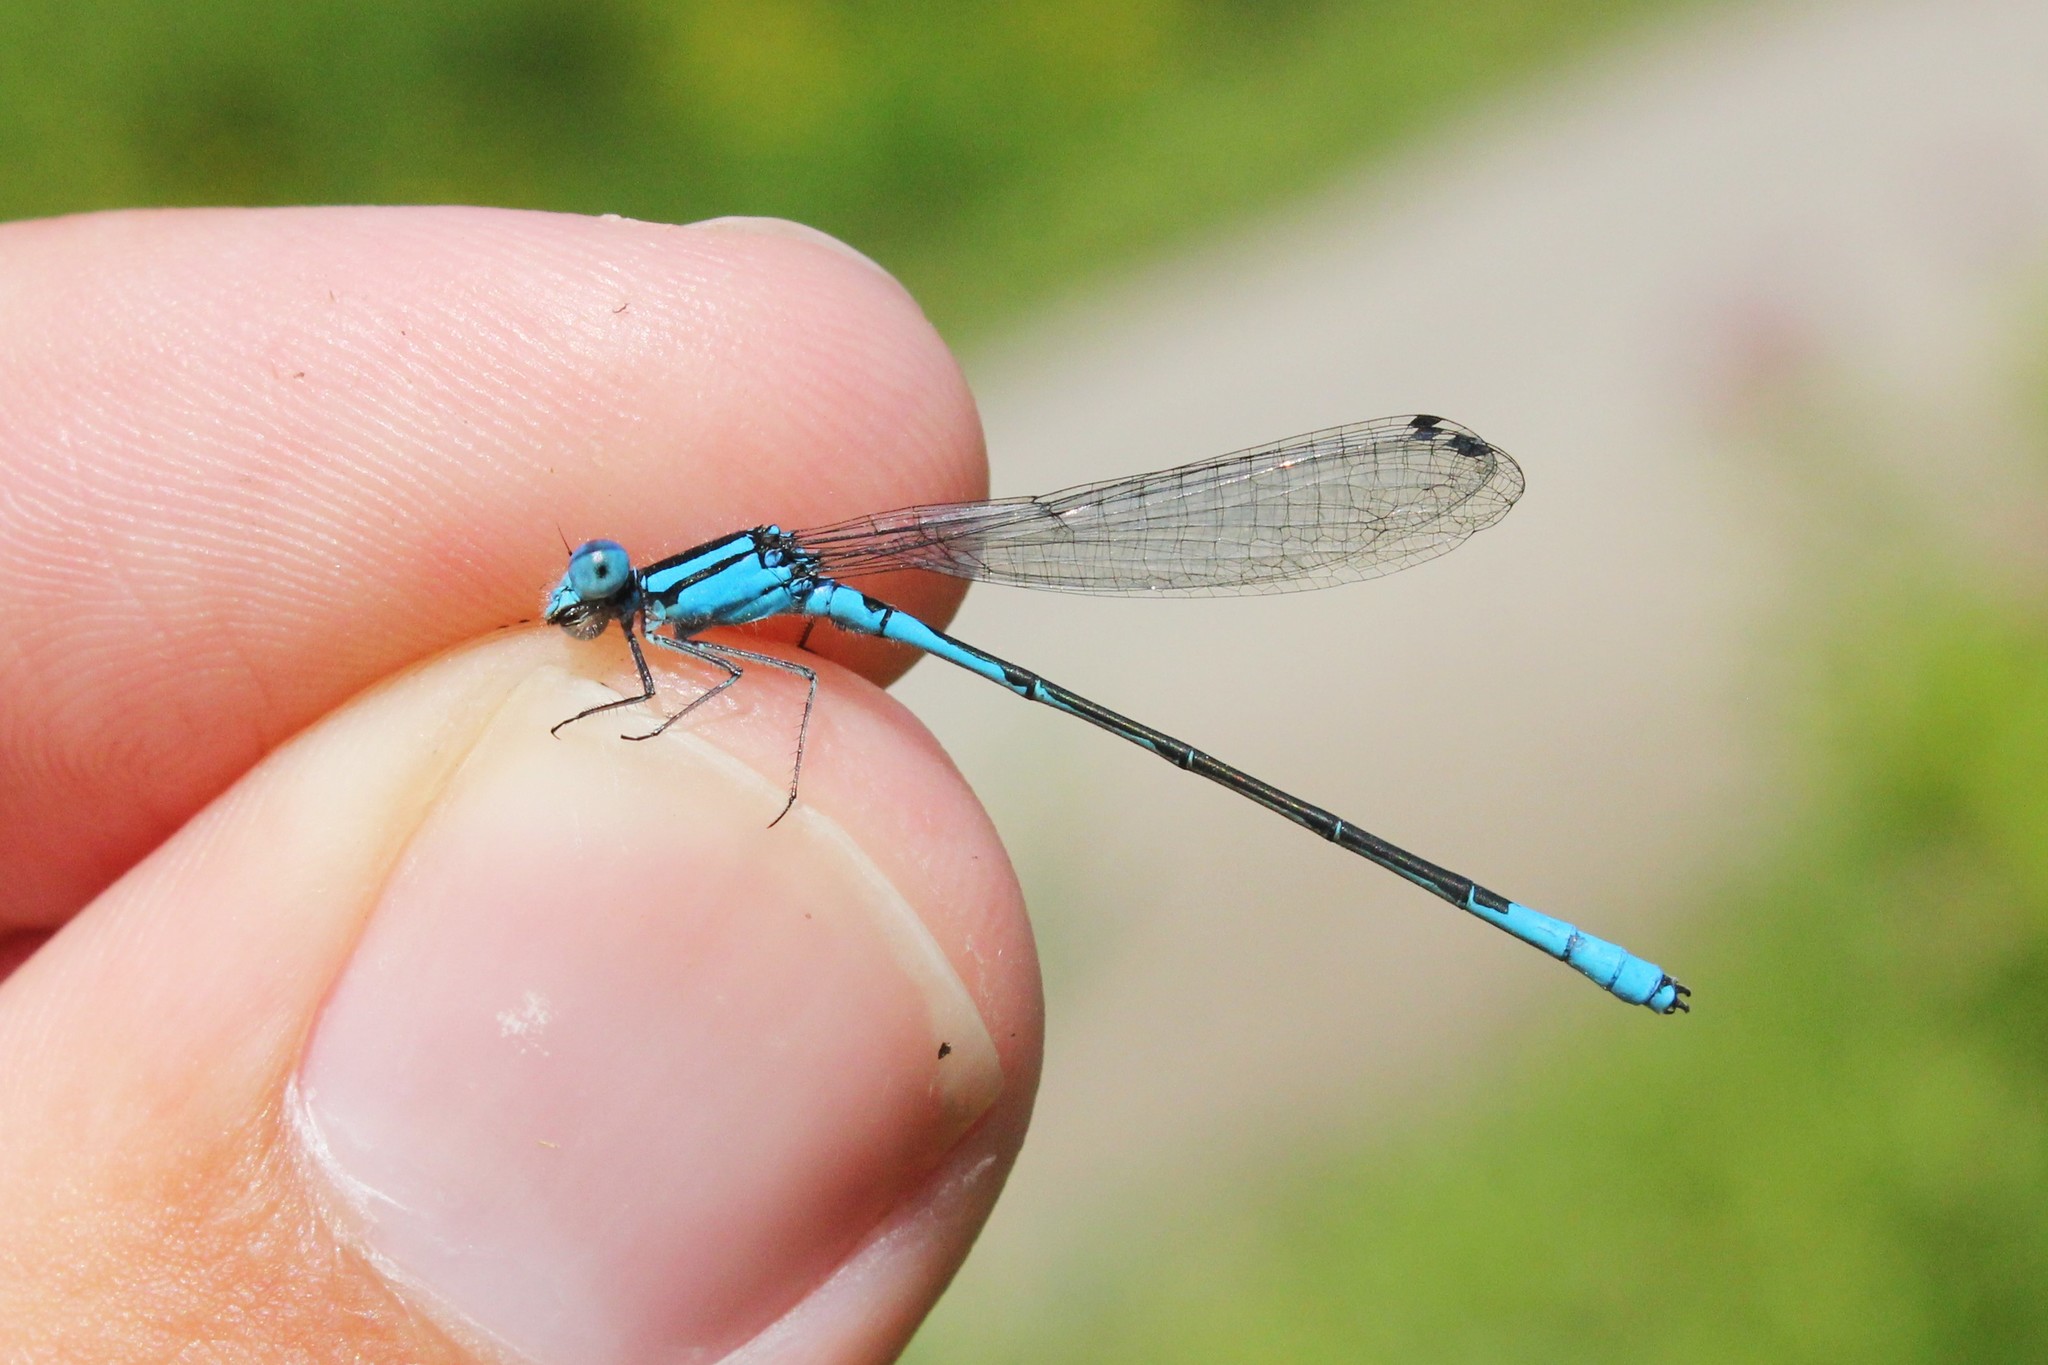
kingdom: Animalia
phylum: Arthropoda
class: Insecta
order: Odonata
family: Coenagrionidae
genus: Enallagma
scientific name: Enallagma aspersum
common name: Azure bluet
